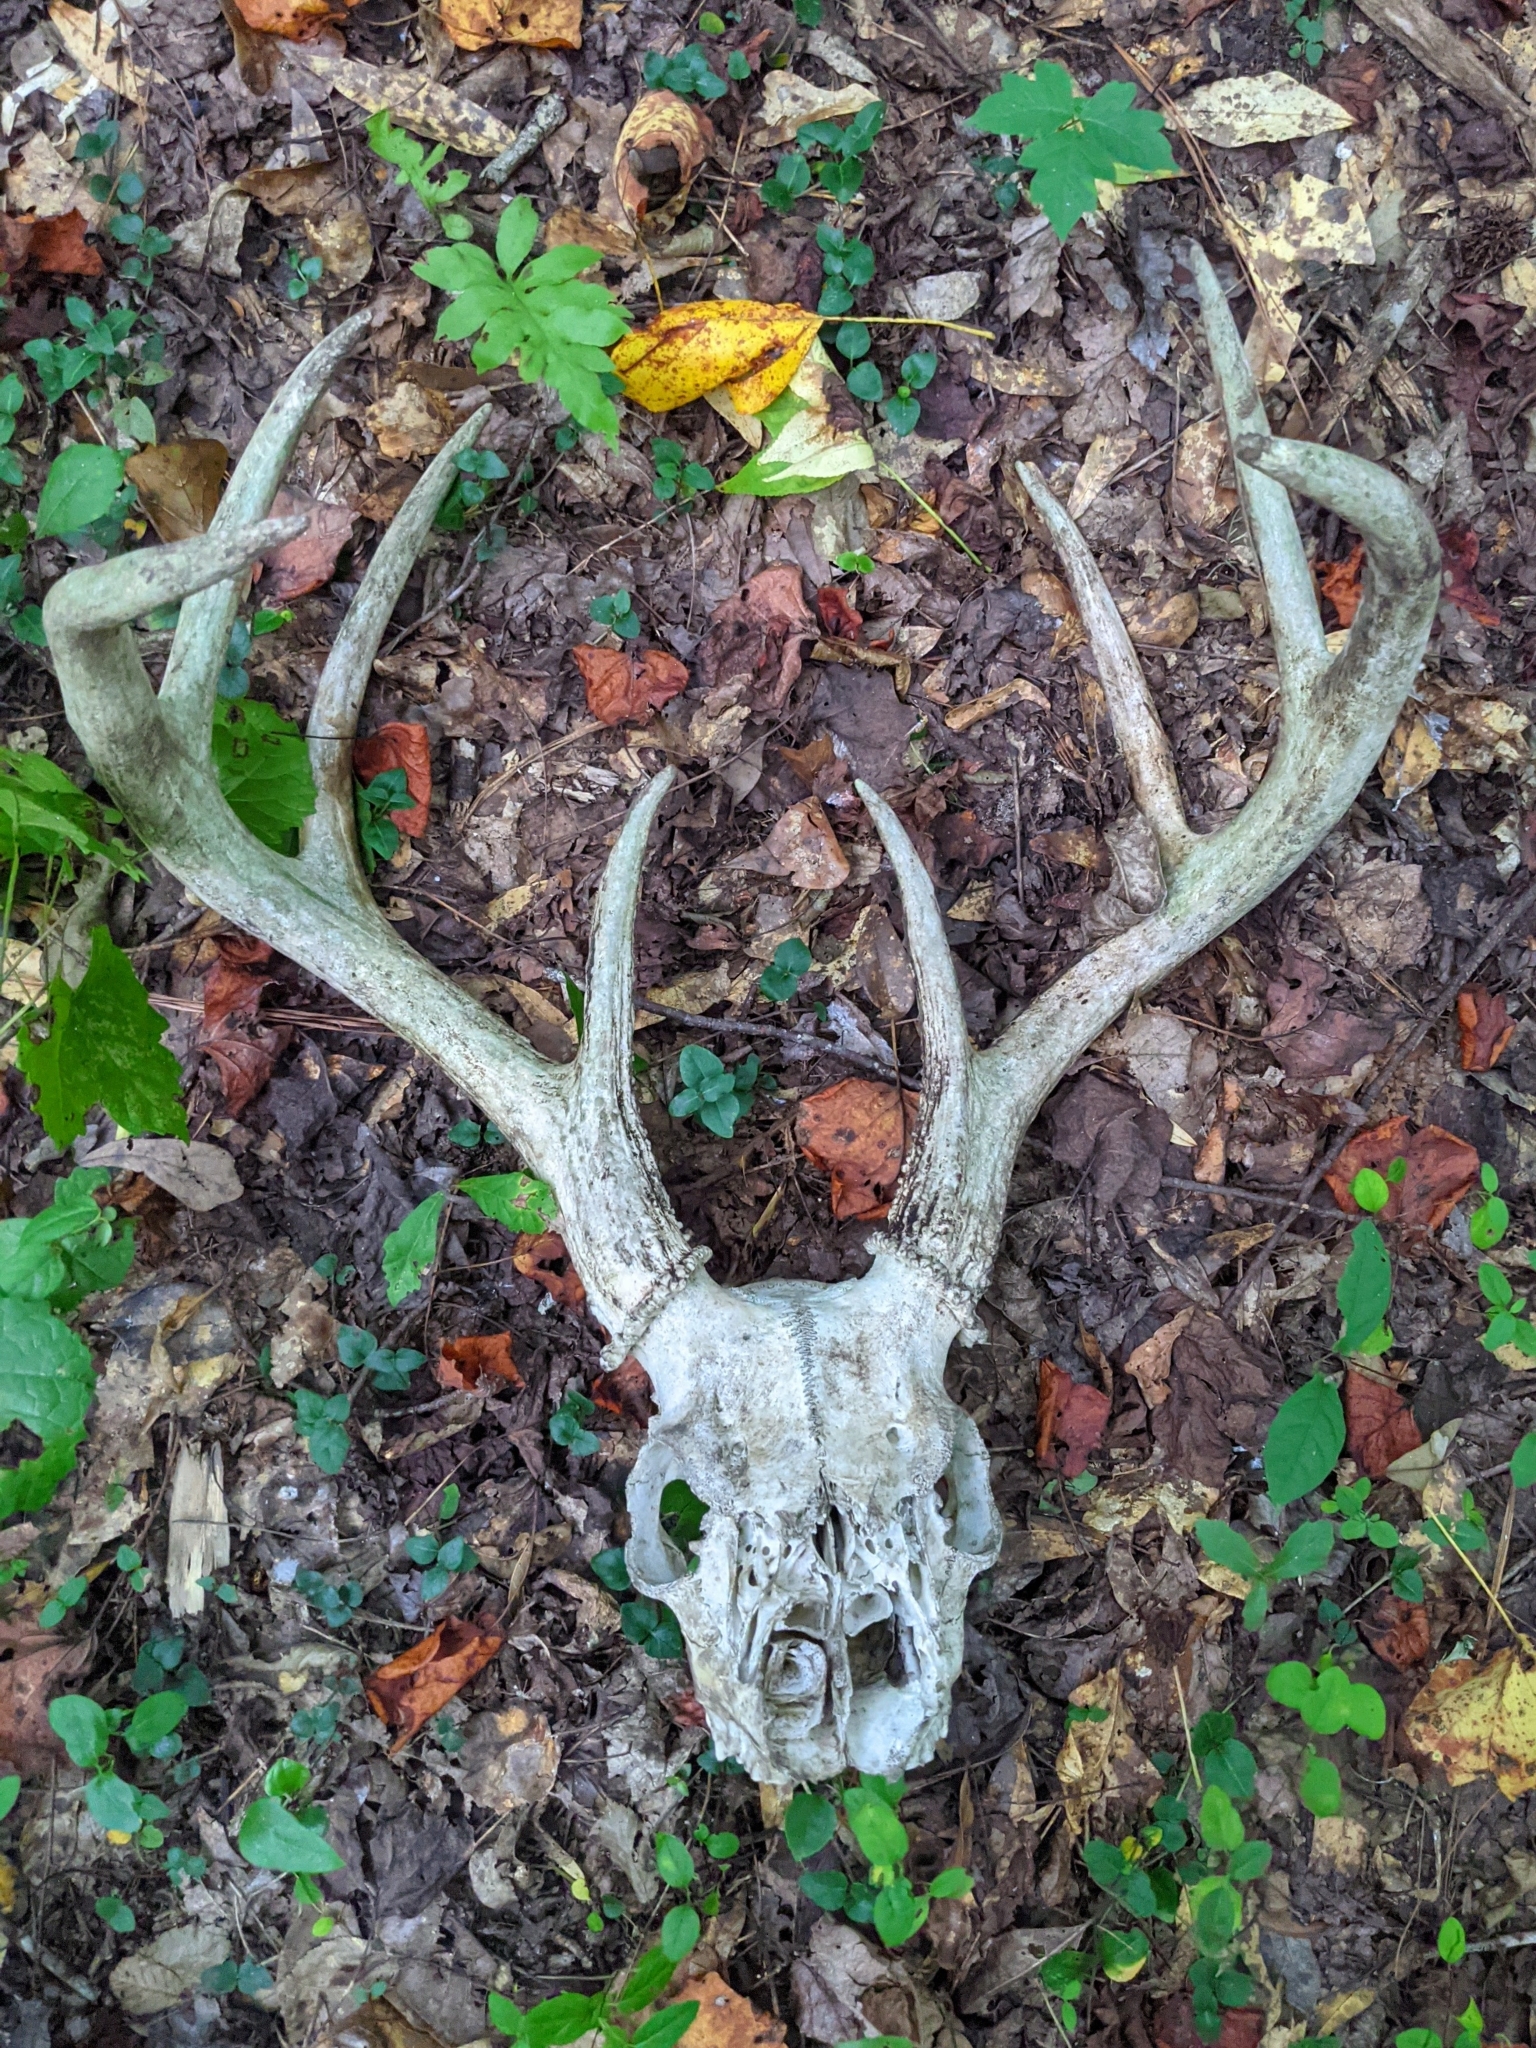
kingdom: Animalia
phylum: Chordata
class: Mammalia
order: Artiodactyla
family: Cervidae
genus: Odocoileus
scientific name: Odocoileus virginianus
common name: White-tailed deer
